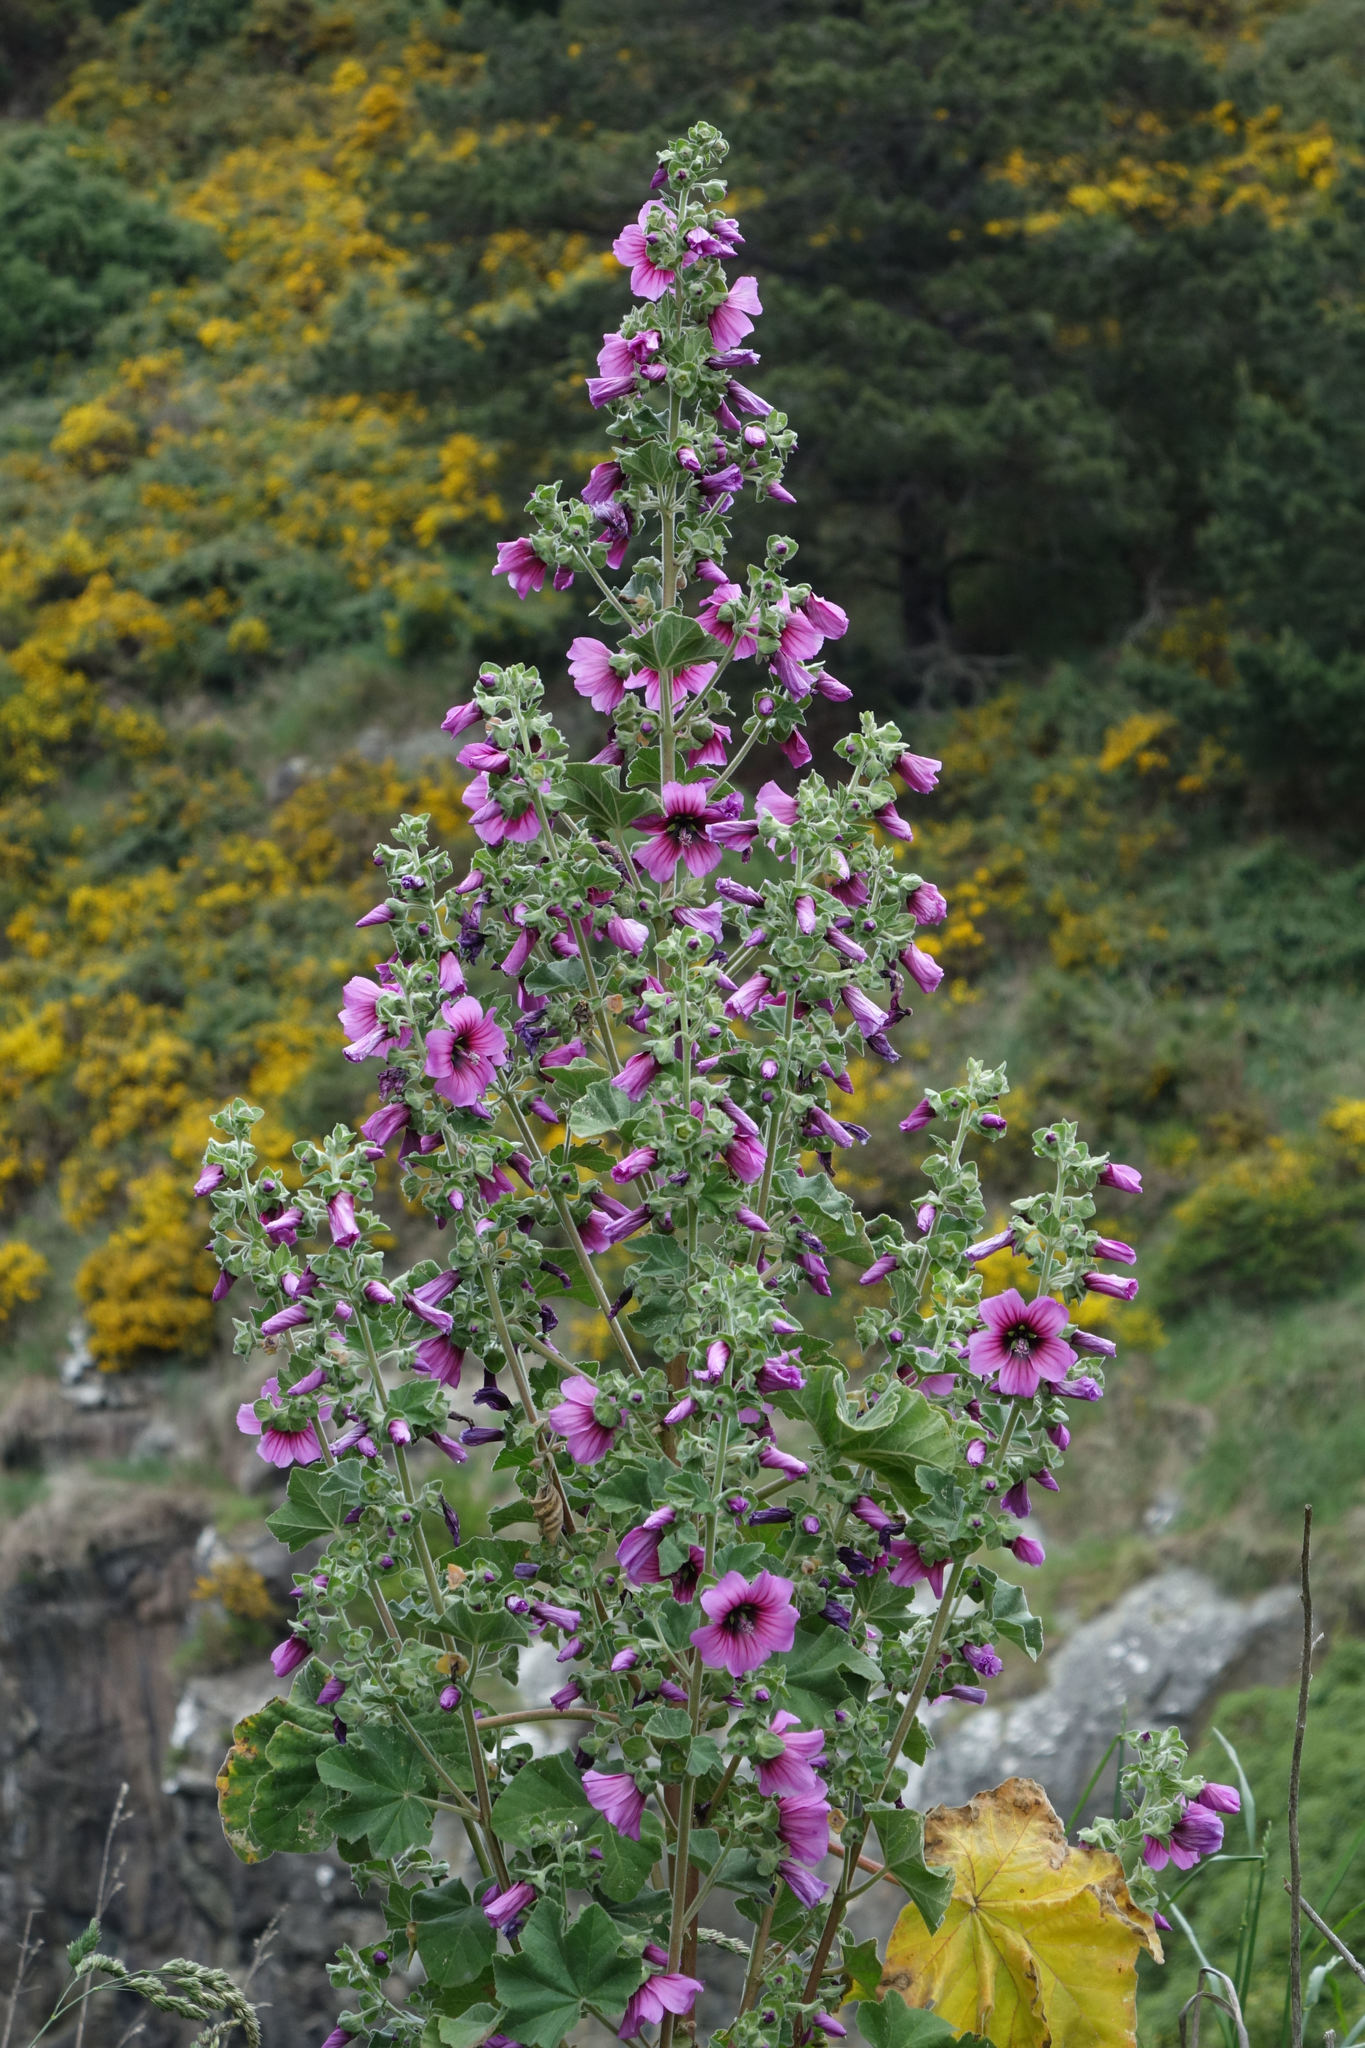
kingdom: Plantae
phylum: Tracheophyta
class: Magnoliopsida
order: Malvales
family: Malvaceae
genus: Malva
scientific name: Malva arborea
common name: Tree mallow
